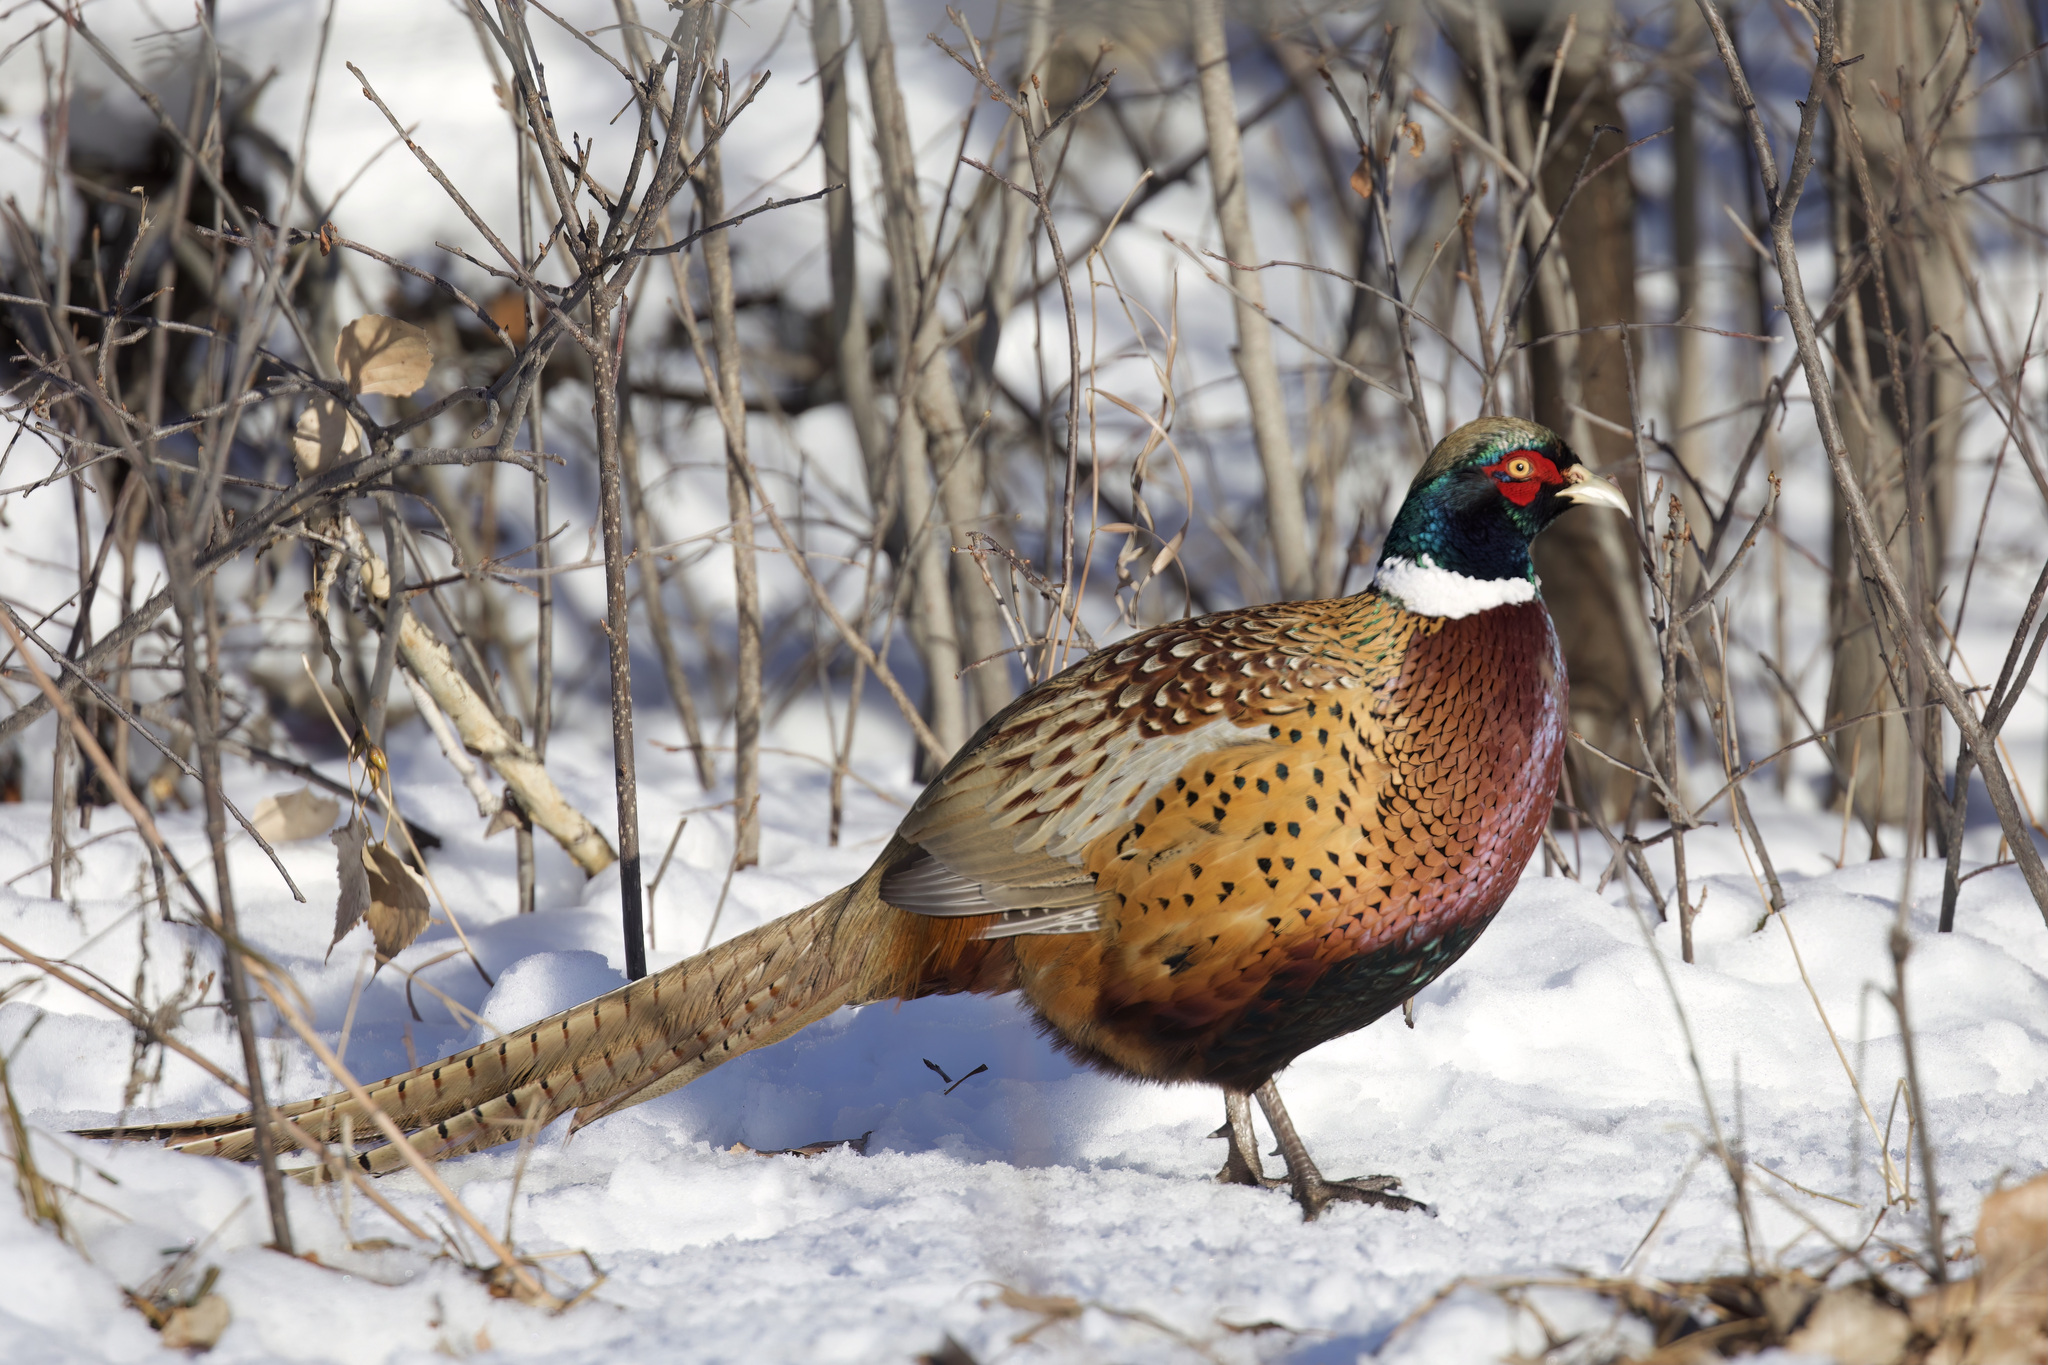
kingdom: Animalia
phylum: Chordata
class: Aves
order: Galliformes
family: Phasianidae
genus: Phasianus
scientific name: Phasianus colchicus
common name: Common pheasant
